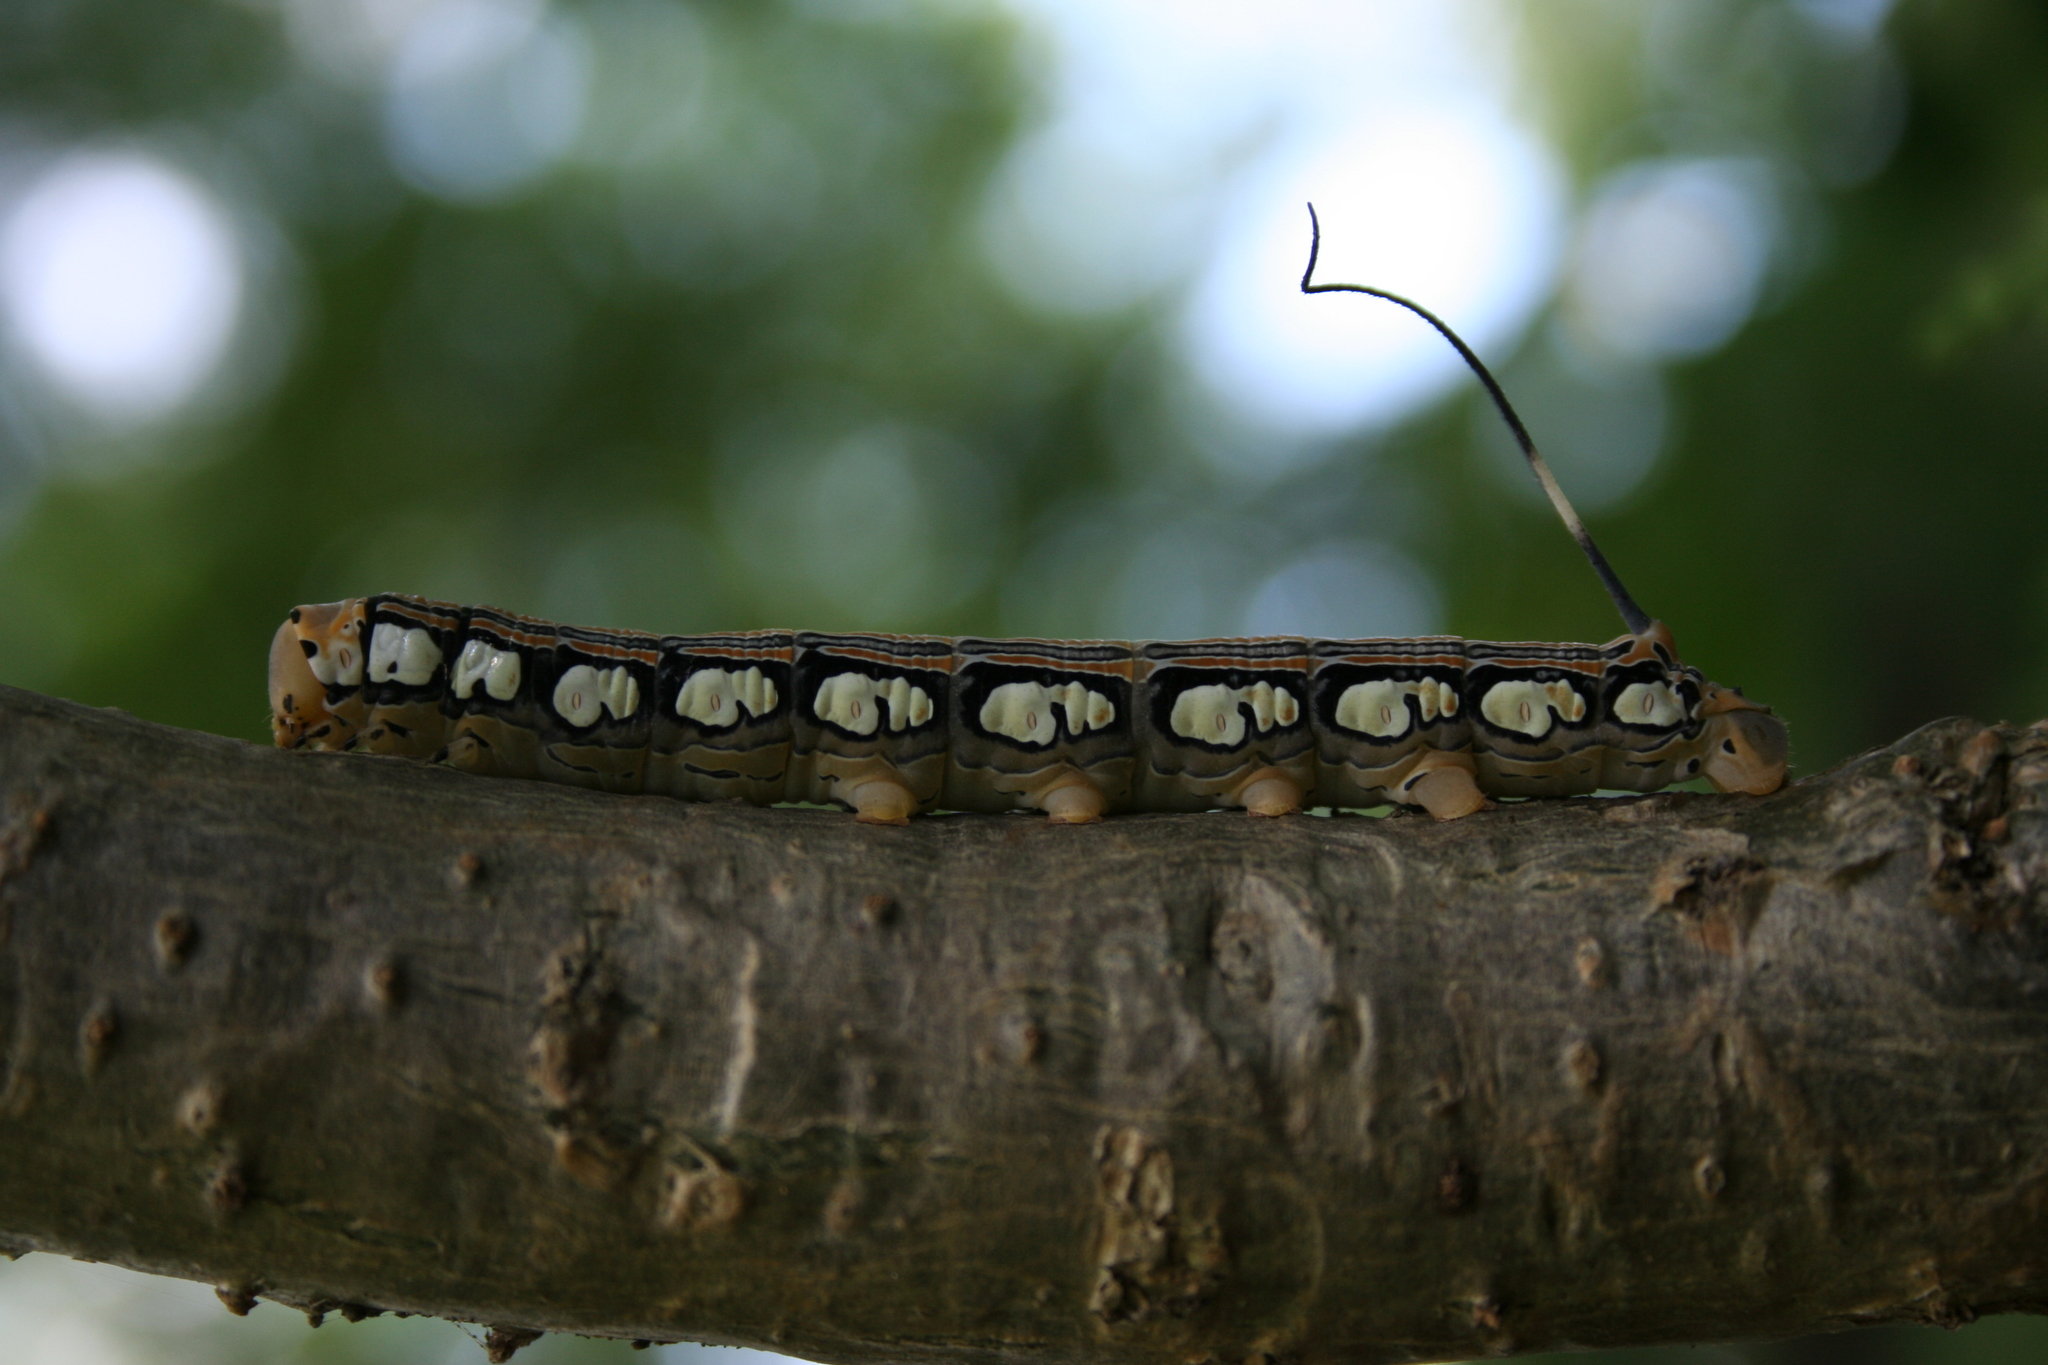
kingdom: Animalia
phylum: Arthropoda
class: Insecta
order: Lepidoptera
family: Sphingidae
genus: Isognathus
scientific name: Isognathus rimosa
